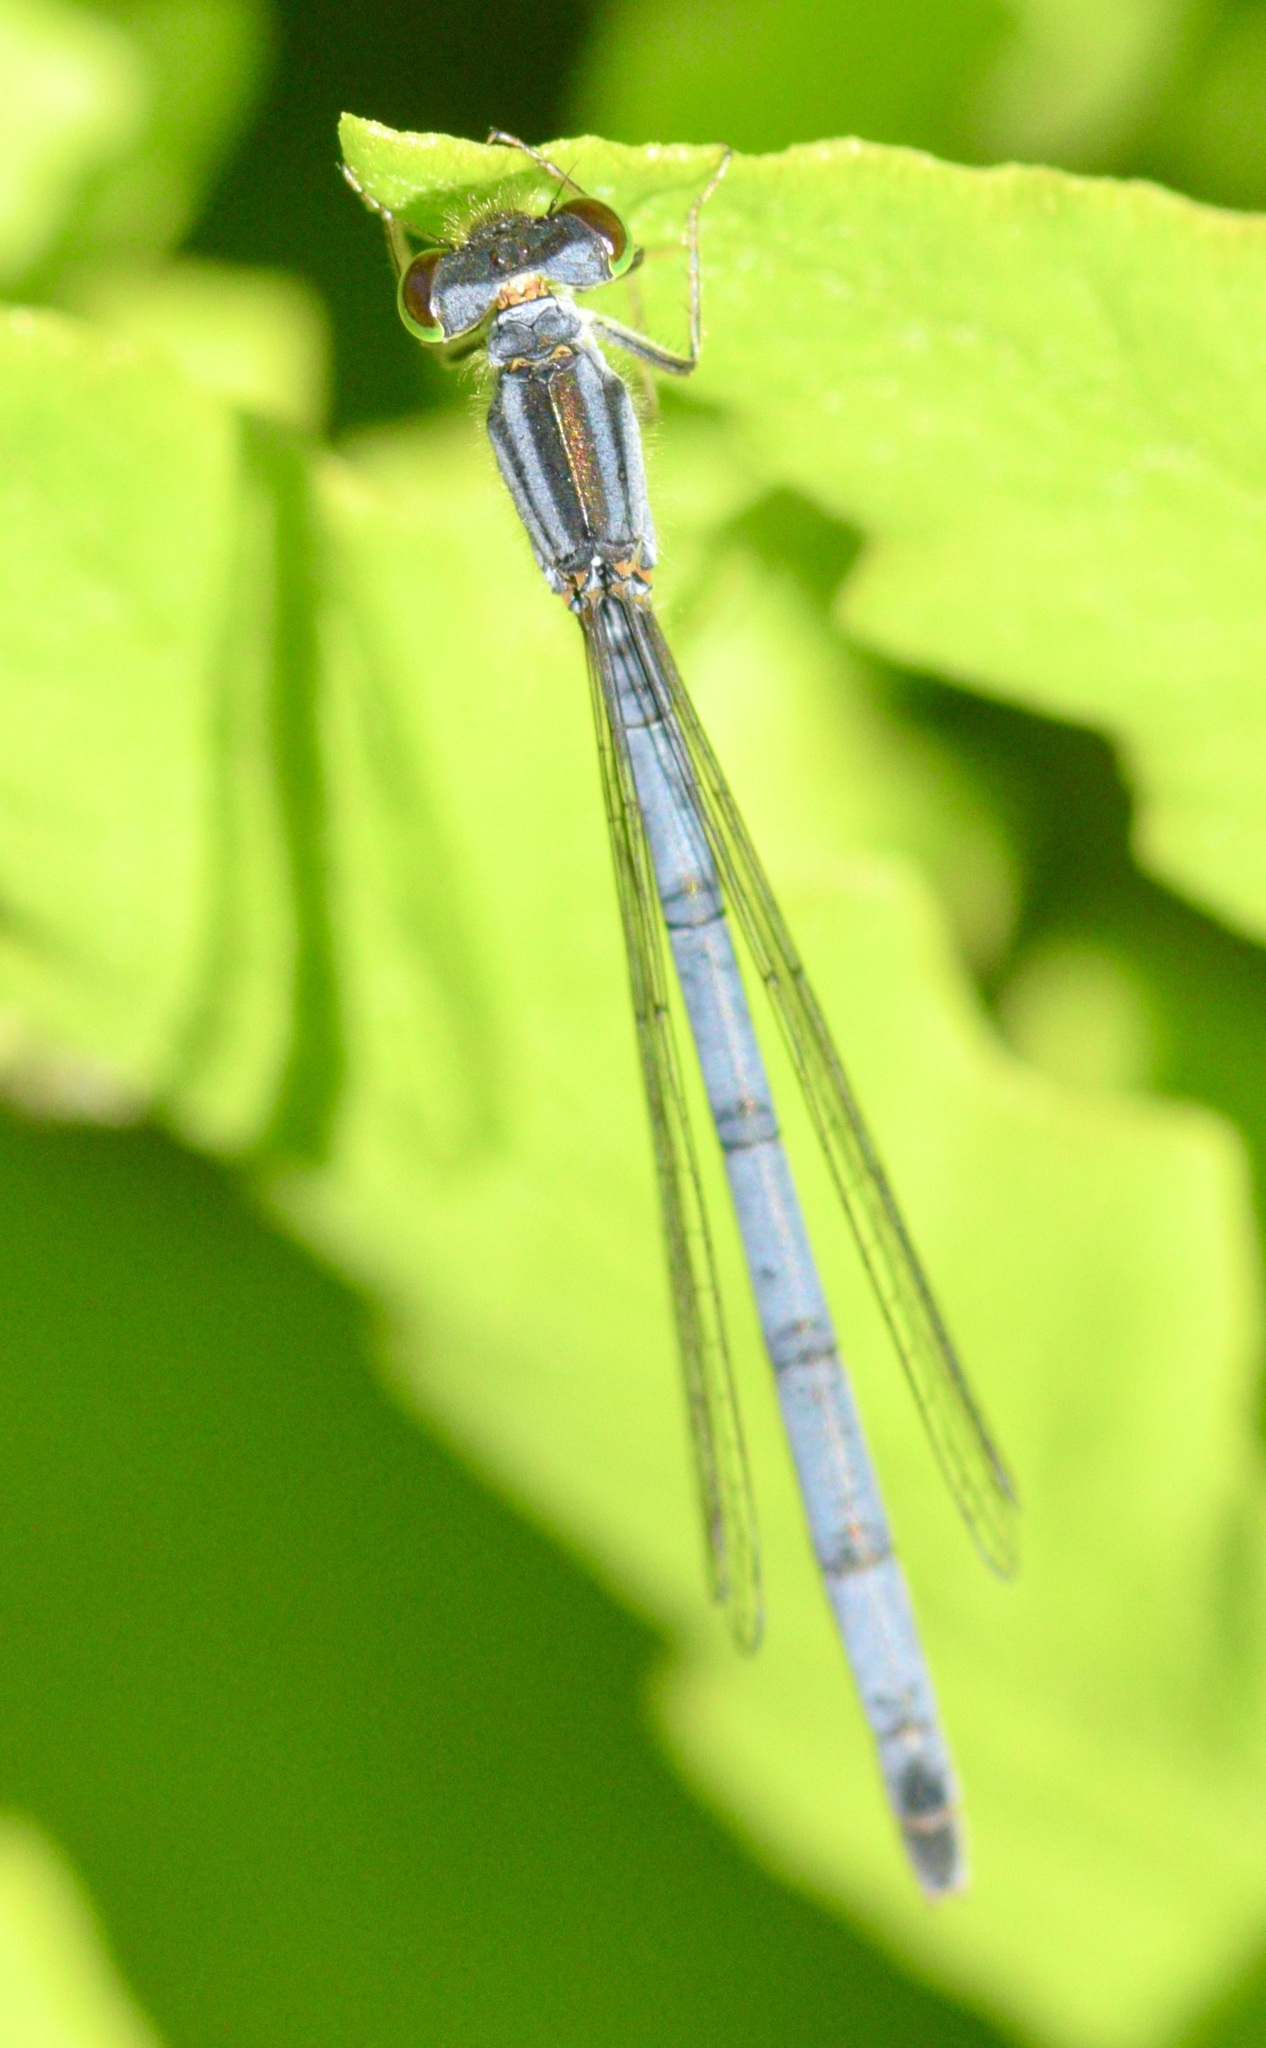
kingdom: Animalia
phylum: Arthropoda
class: Insecta
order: Odonata
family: Coenagrionidae
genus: Ischnura
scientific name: Ischnura verticalis
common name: Eastern forktail
